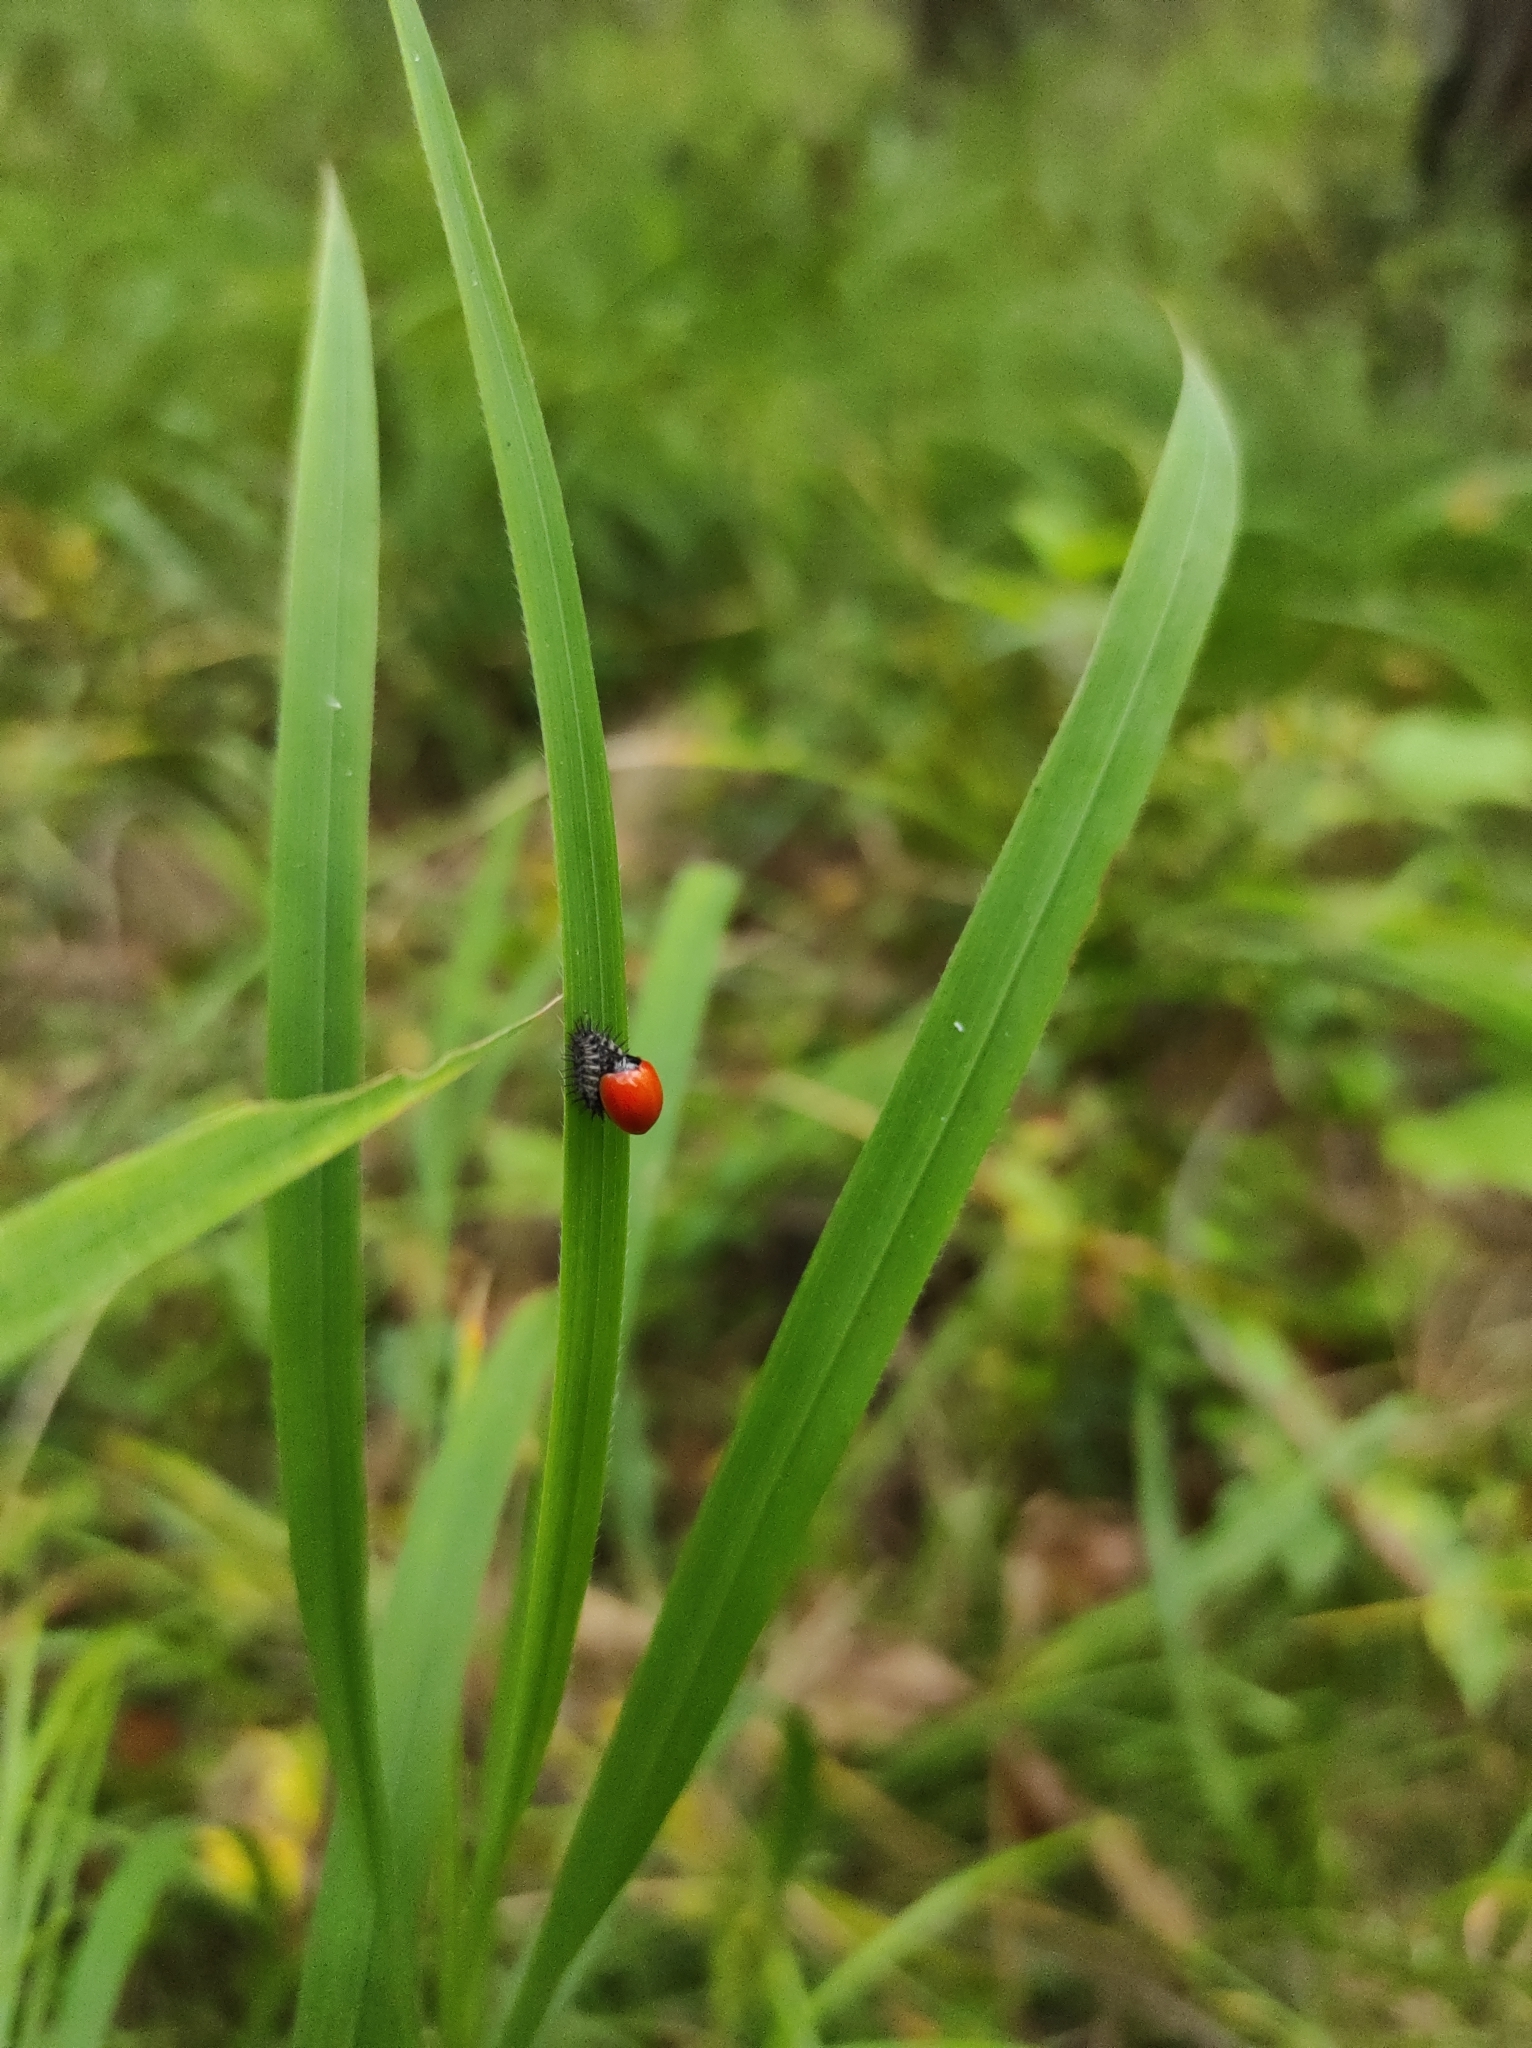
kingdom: Animalia
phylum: Arthropoda
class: Insecta
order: Coleoptera
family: Coccinellidae
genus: Chilocorus
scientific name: Chilocorus renipustulatus
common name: Kidney-spot ladybird
